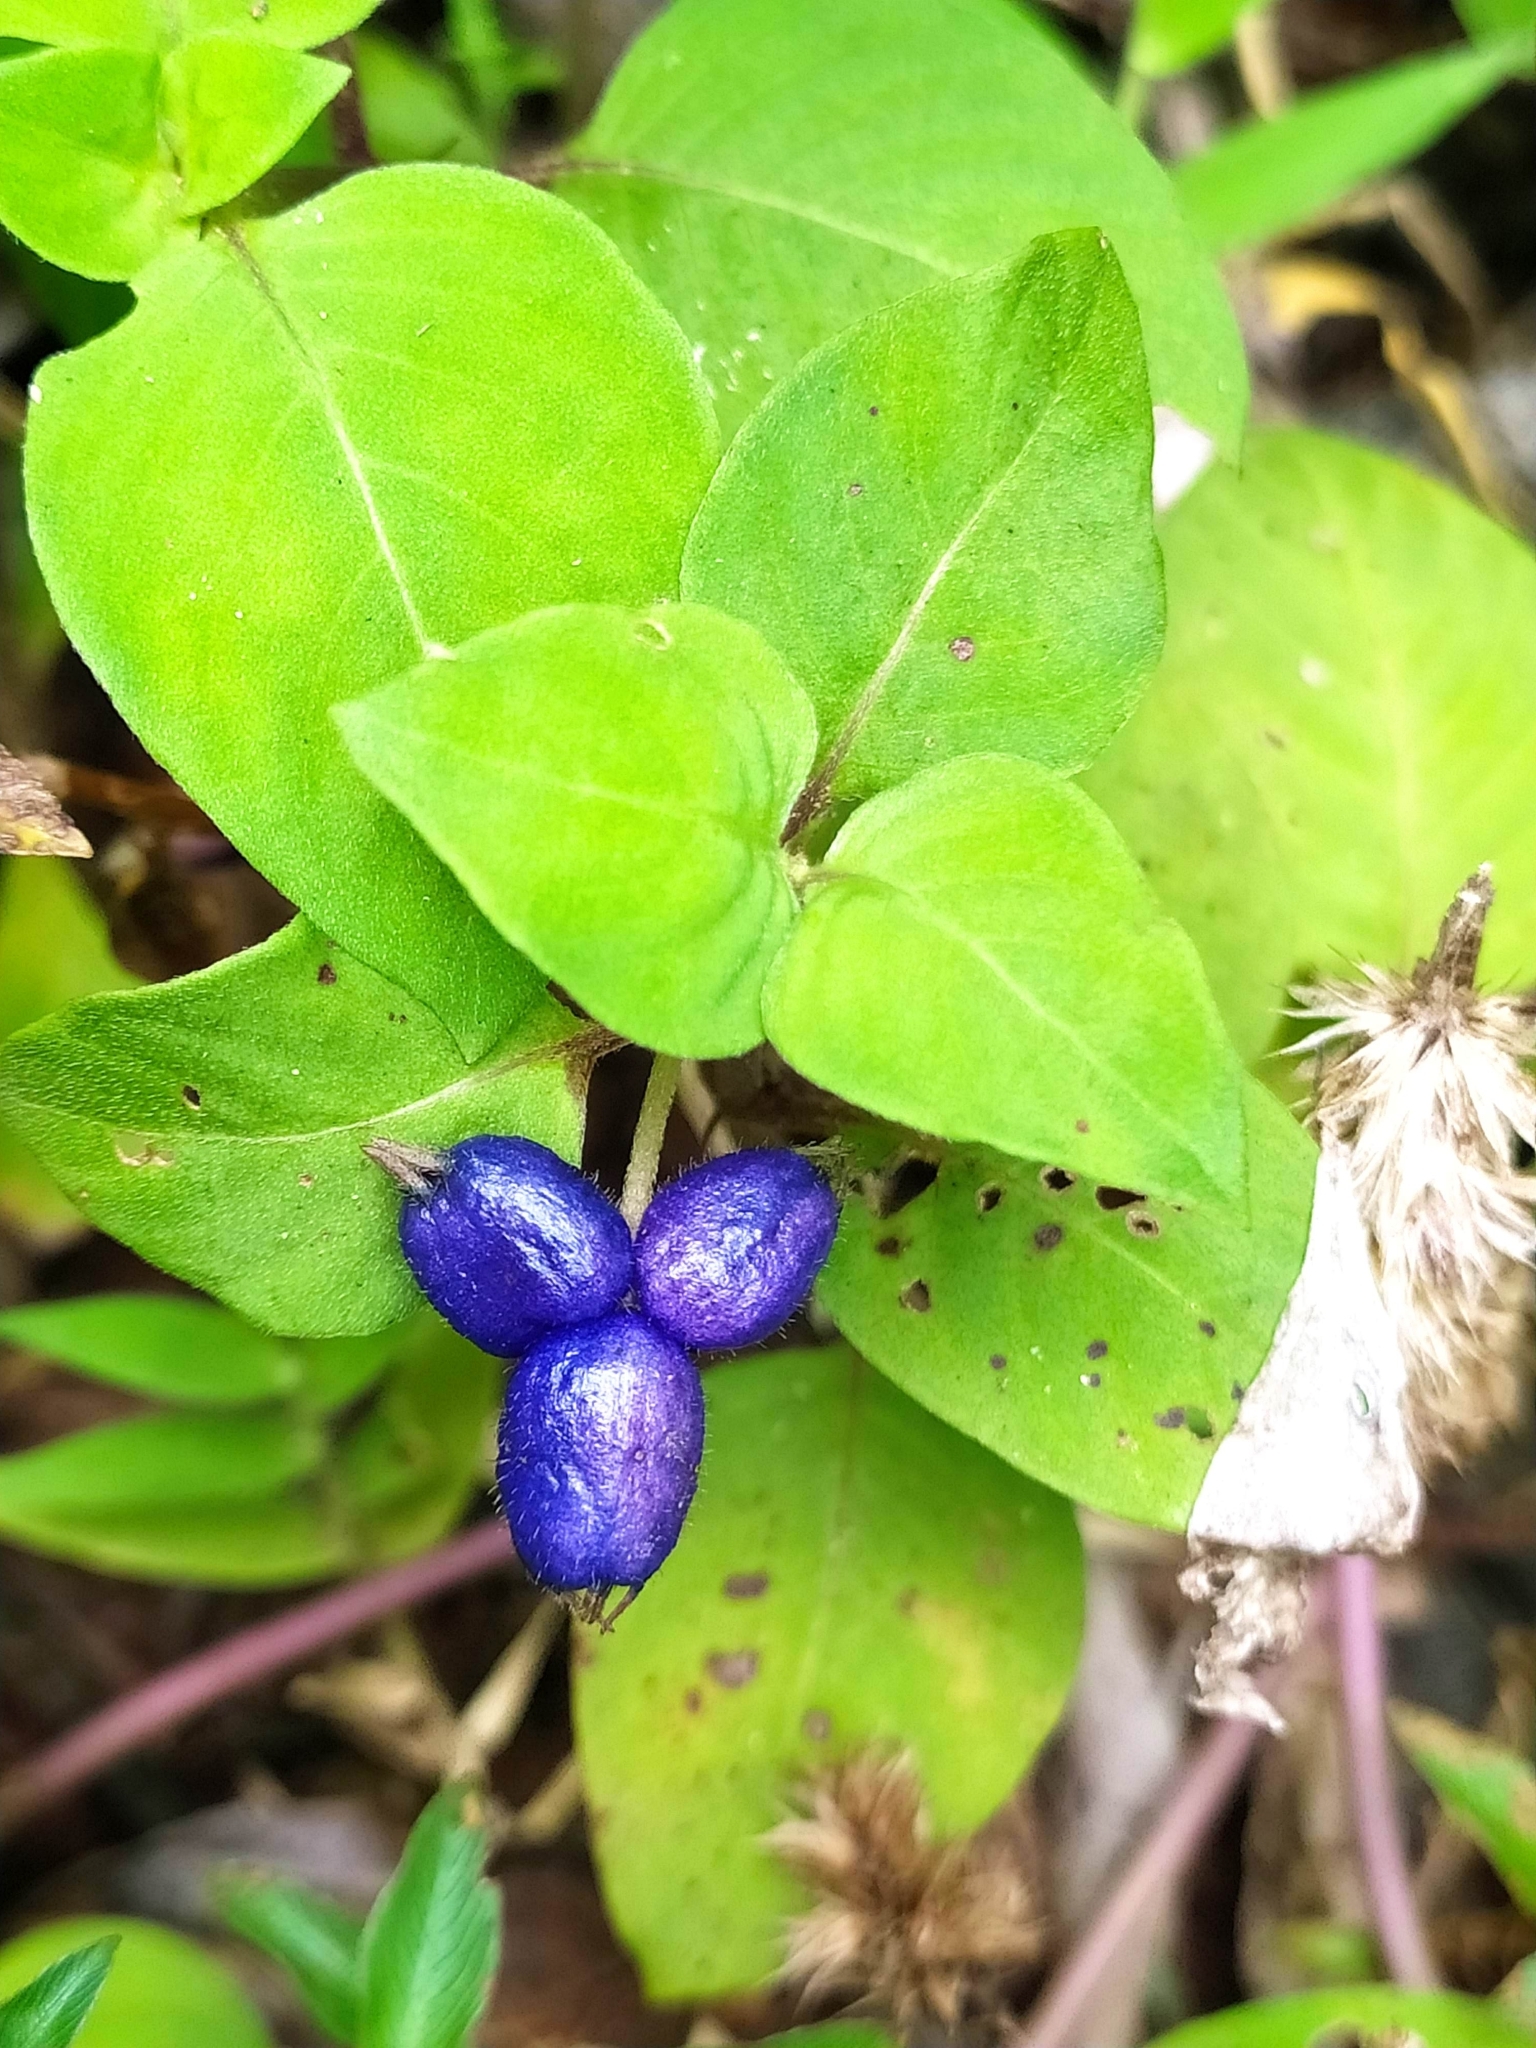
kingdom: Plantae
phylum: Tracheophyta
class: Magnoliopsida
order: Gentianales
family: Rubiaceae
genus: Coccocypselum
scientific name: Coccocypselum guianense
